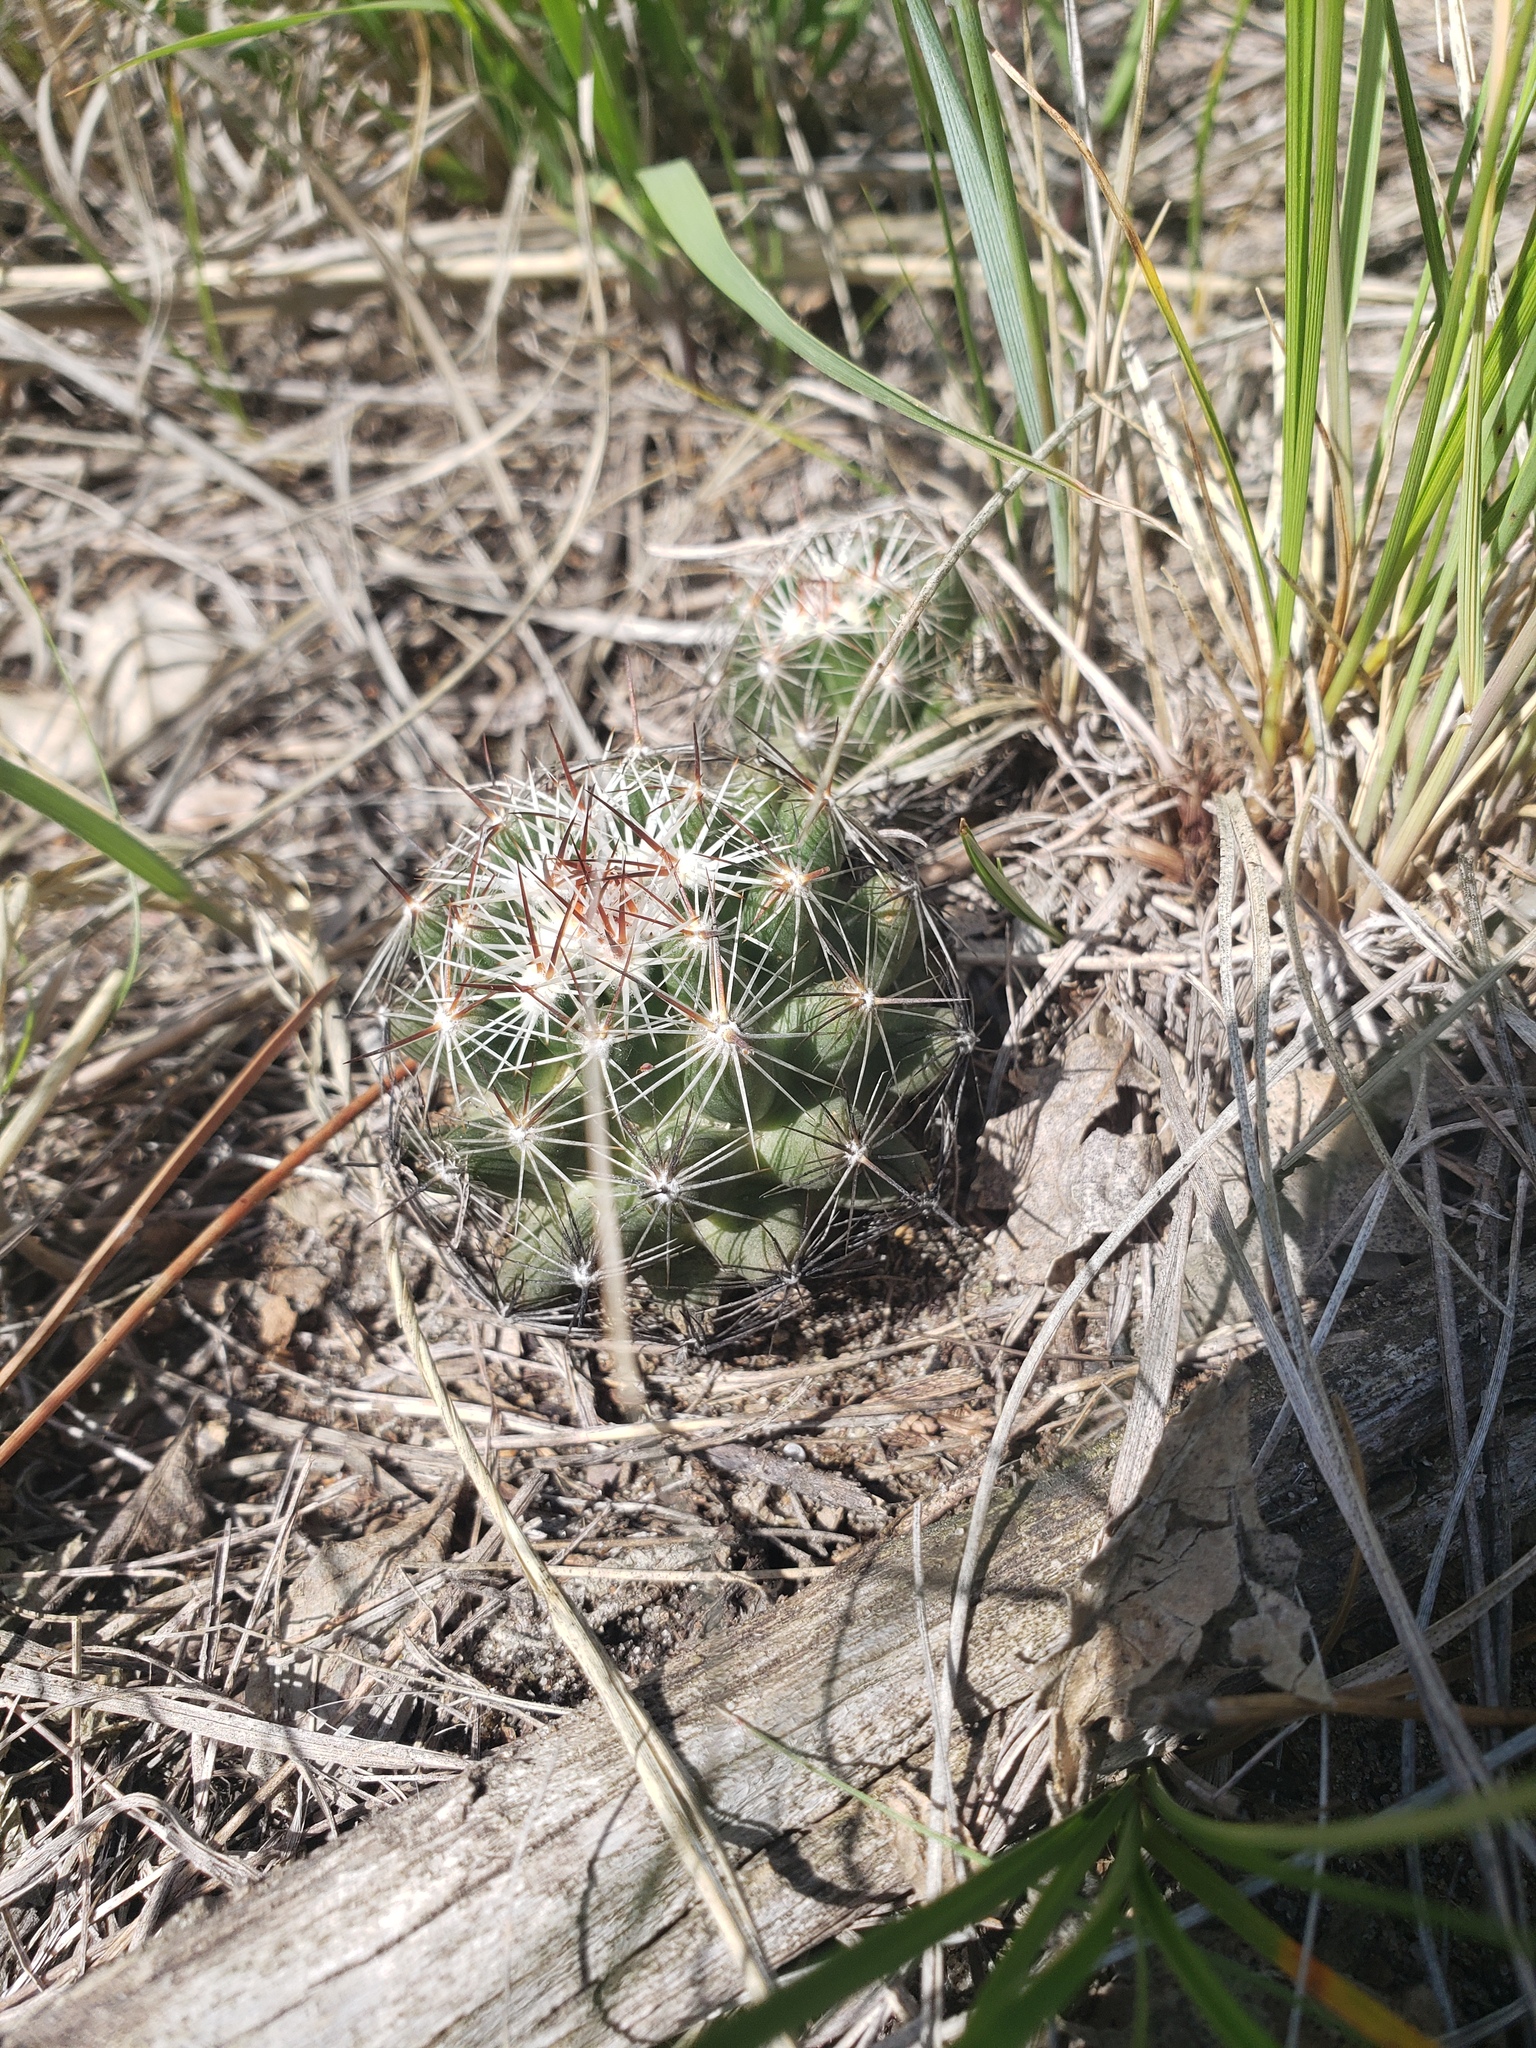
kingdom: Plantae
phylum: Tracheophyta
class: Magnoliopsida
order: Caryophyllales
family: Cactaceae
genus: Pelecyphora
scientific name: Pelecyphora vivipara
